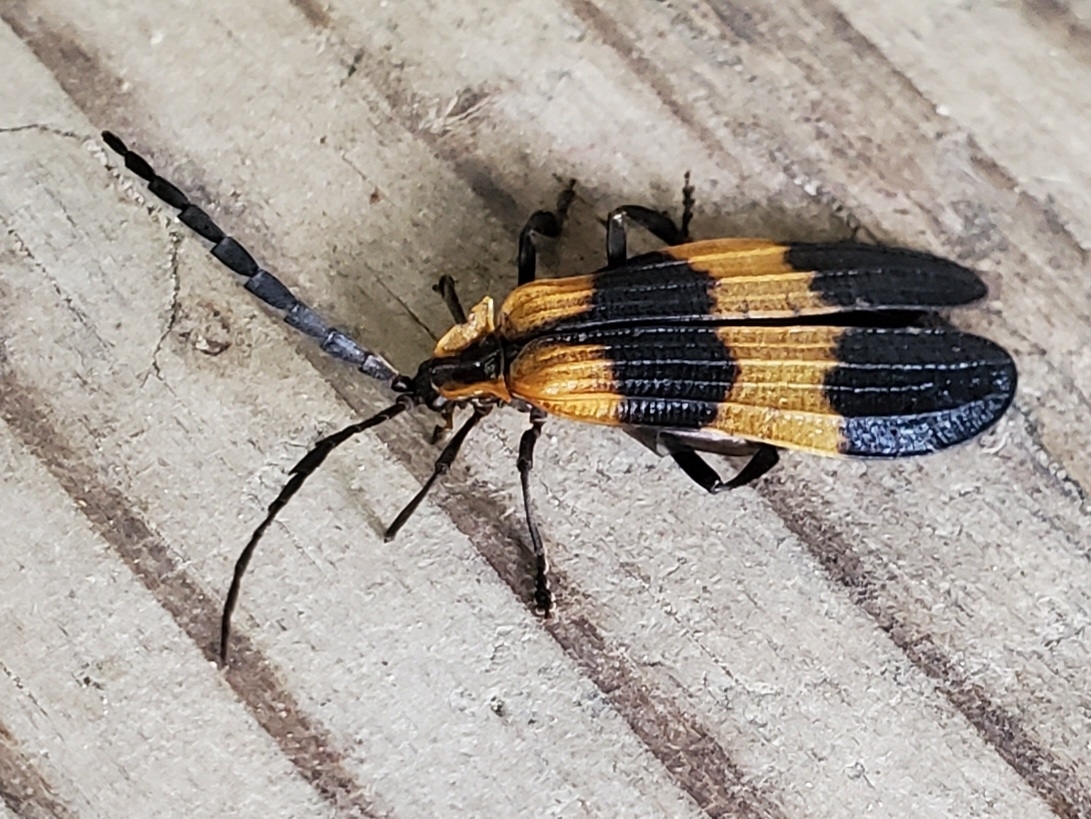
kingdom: Animalia
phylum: Arthropoda
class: Insecta
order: Coleoptera
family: Lycidae
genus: Calopteron
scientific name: Calopteron reticulatum
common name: Banded net-winged beetle
